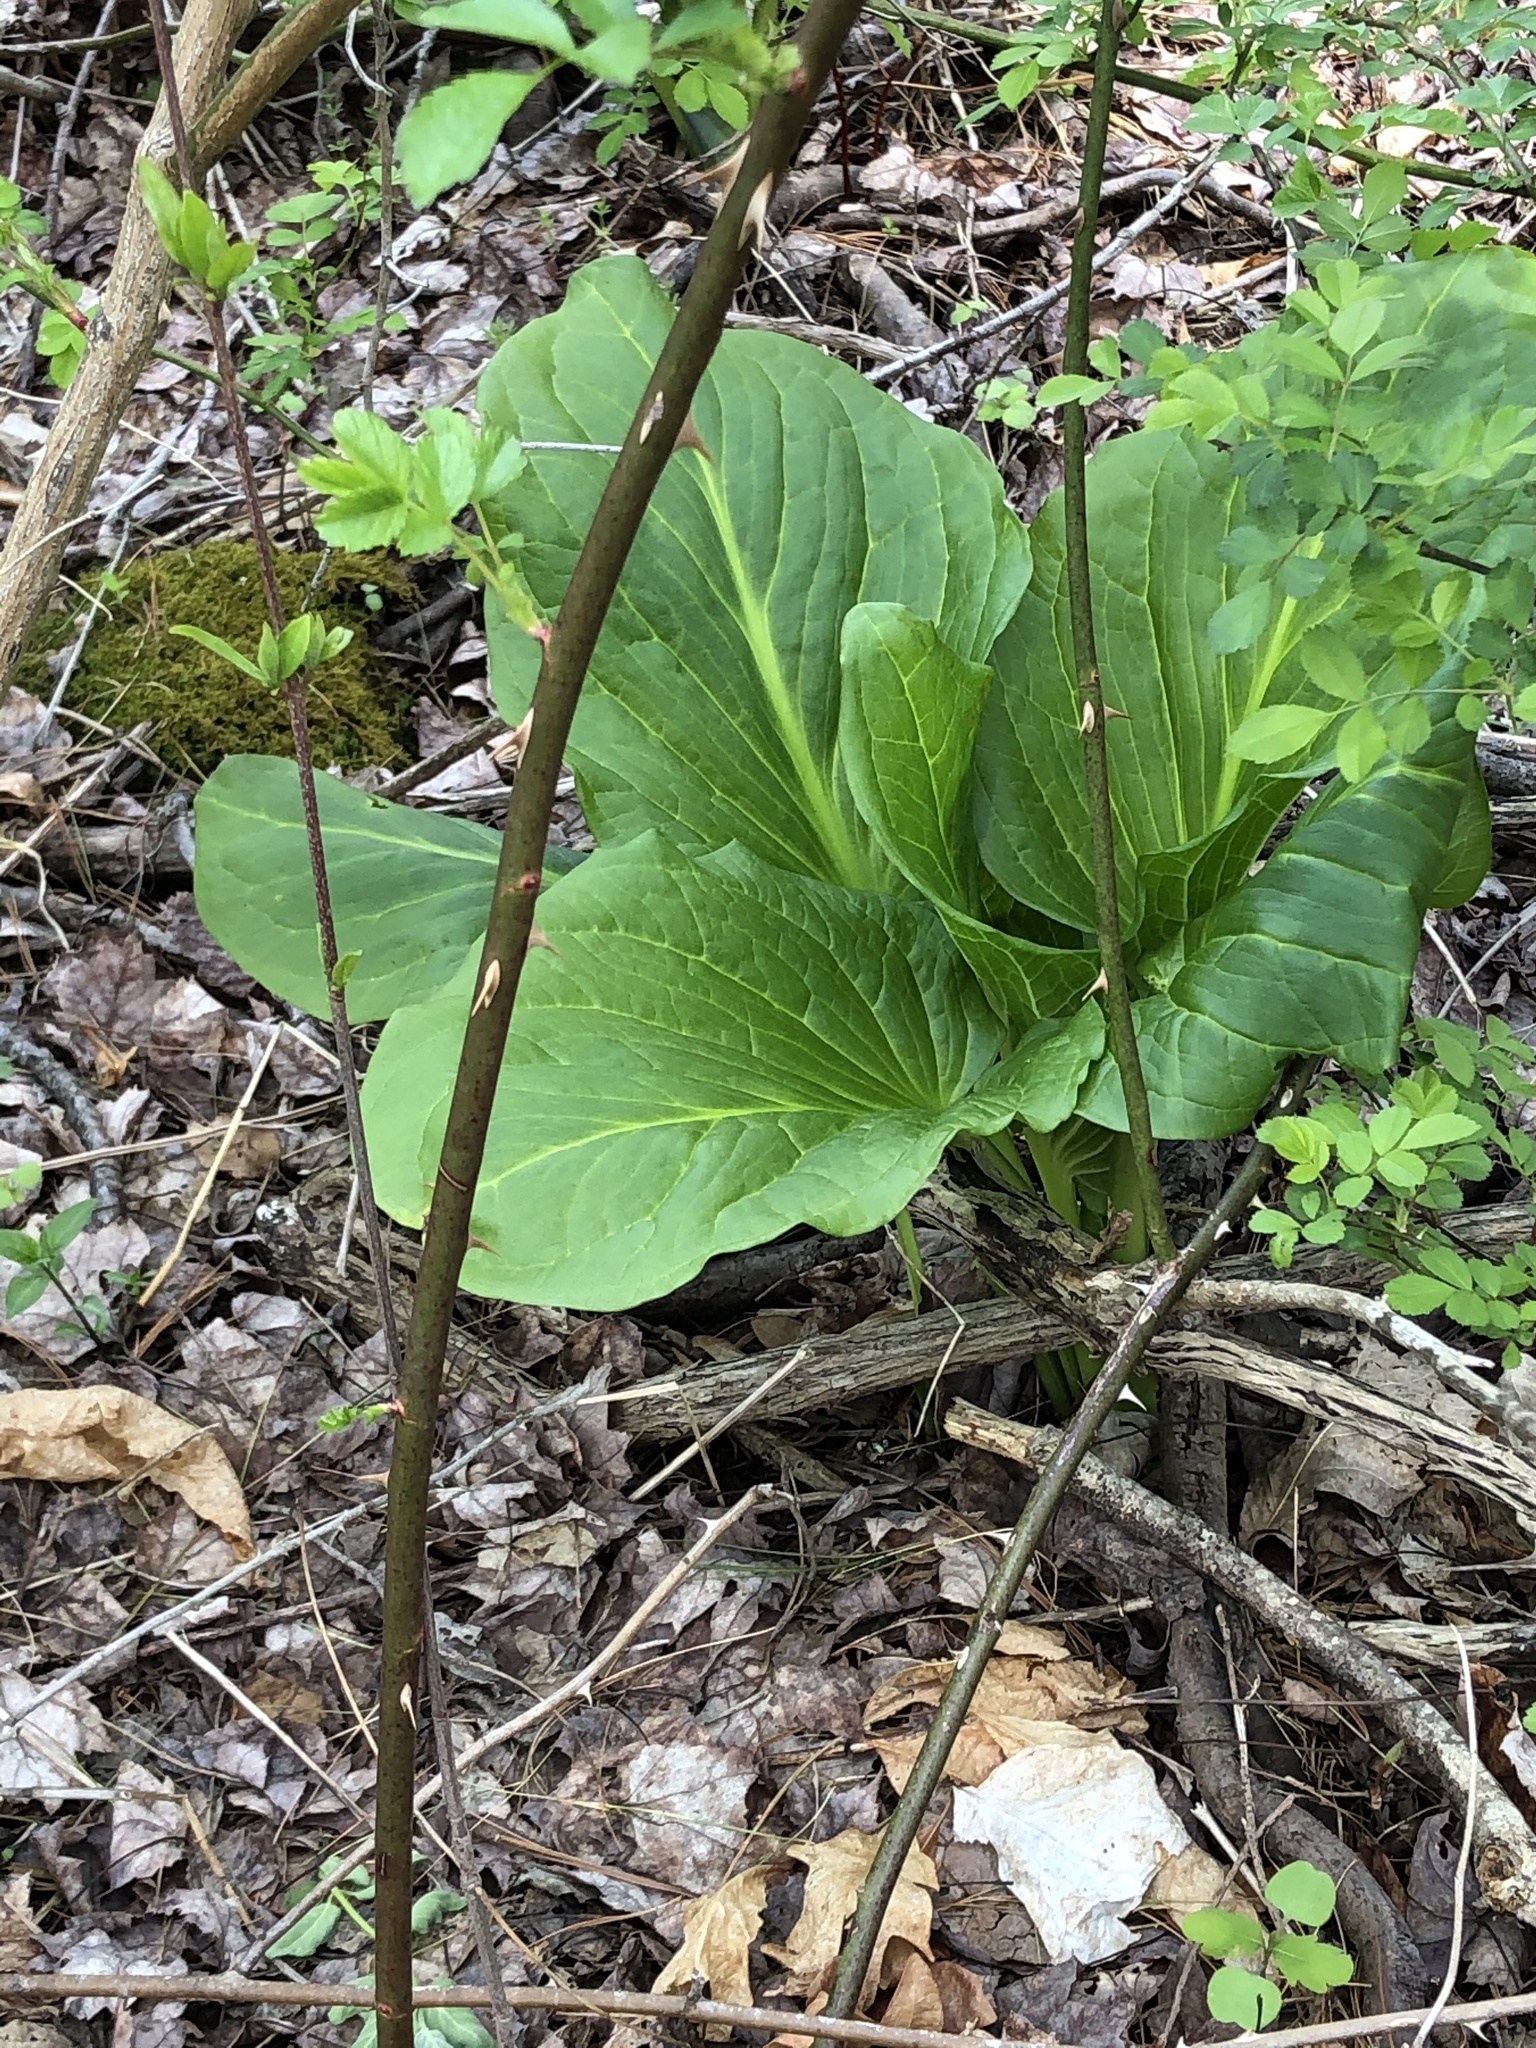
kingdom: Plantae
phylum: Tracheophyta
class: Liliopsida
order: Alismatales
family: Araceae
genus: Symplocarpus
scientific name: Symplocarpus foetidus
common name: Eastern skunk cabbage
